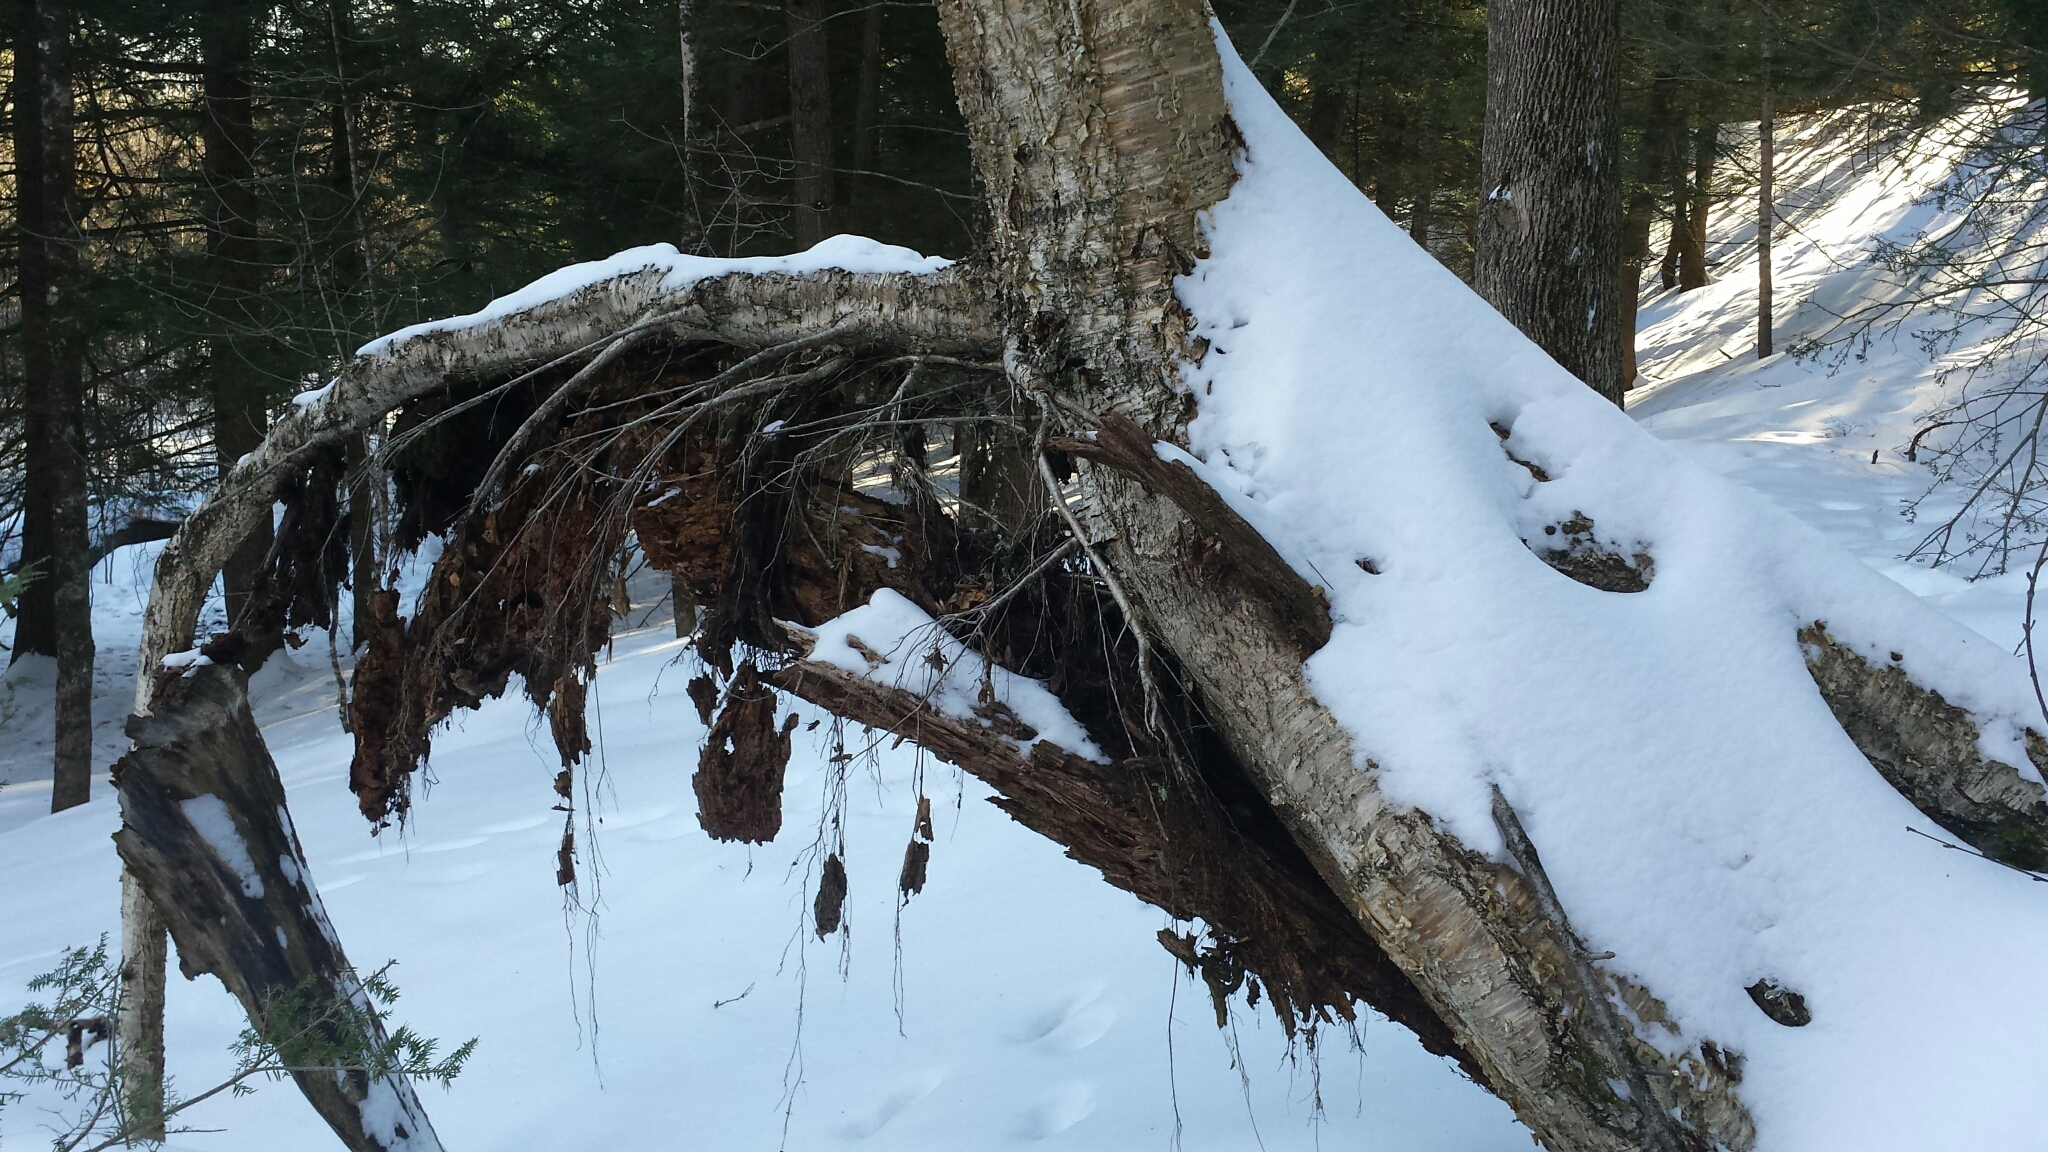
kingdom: Plantae
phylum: Tracheophyta
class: Magnoliopsida
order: Fagales
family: Betulaceae
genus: Betula
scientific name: Betula alleghaniensis
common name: Yellow birch
